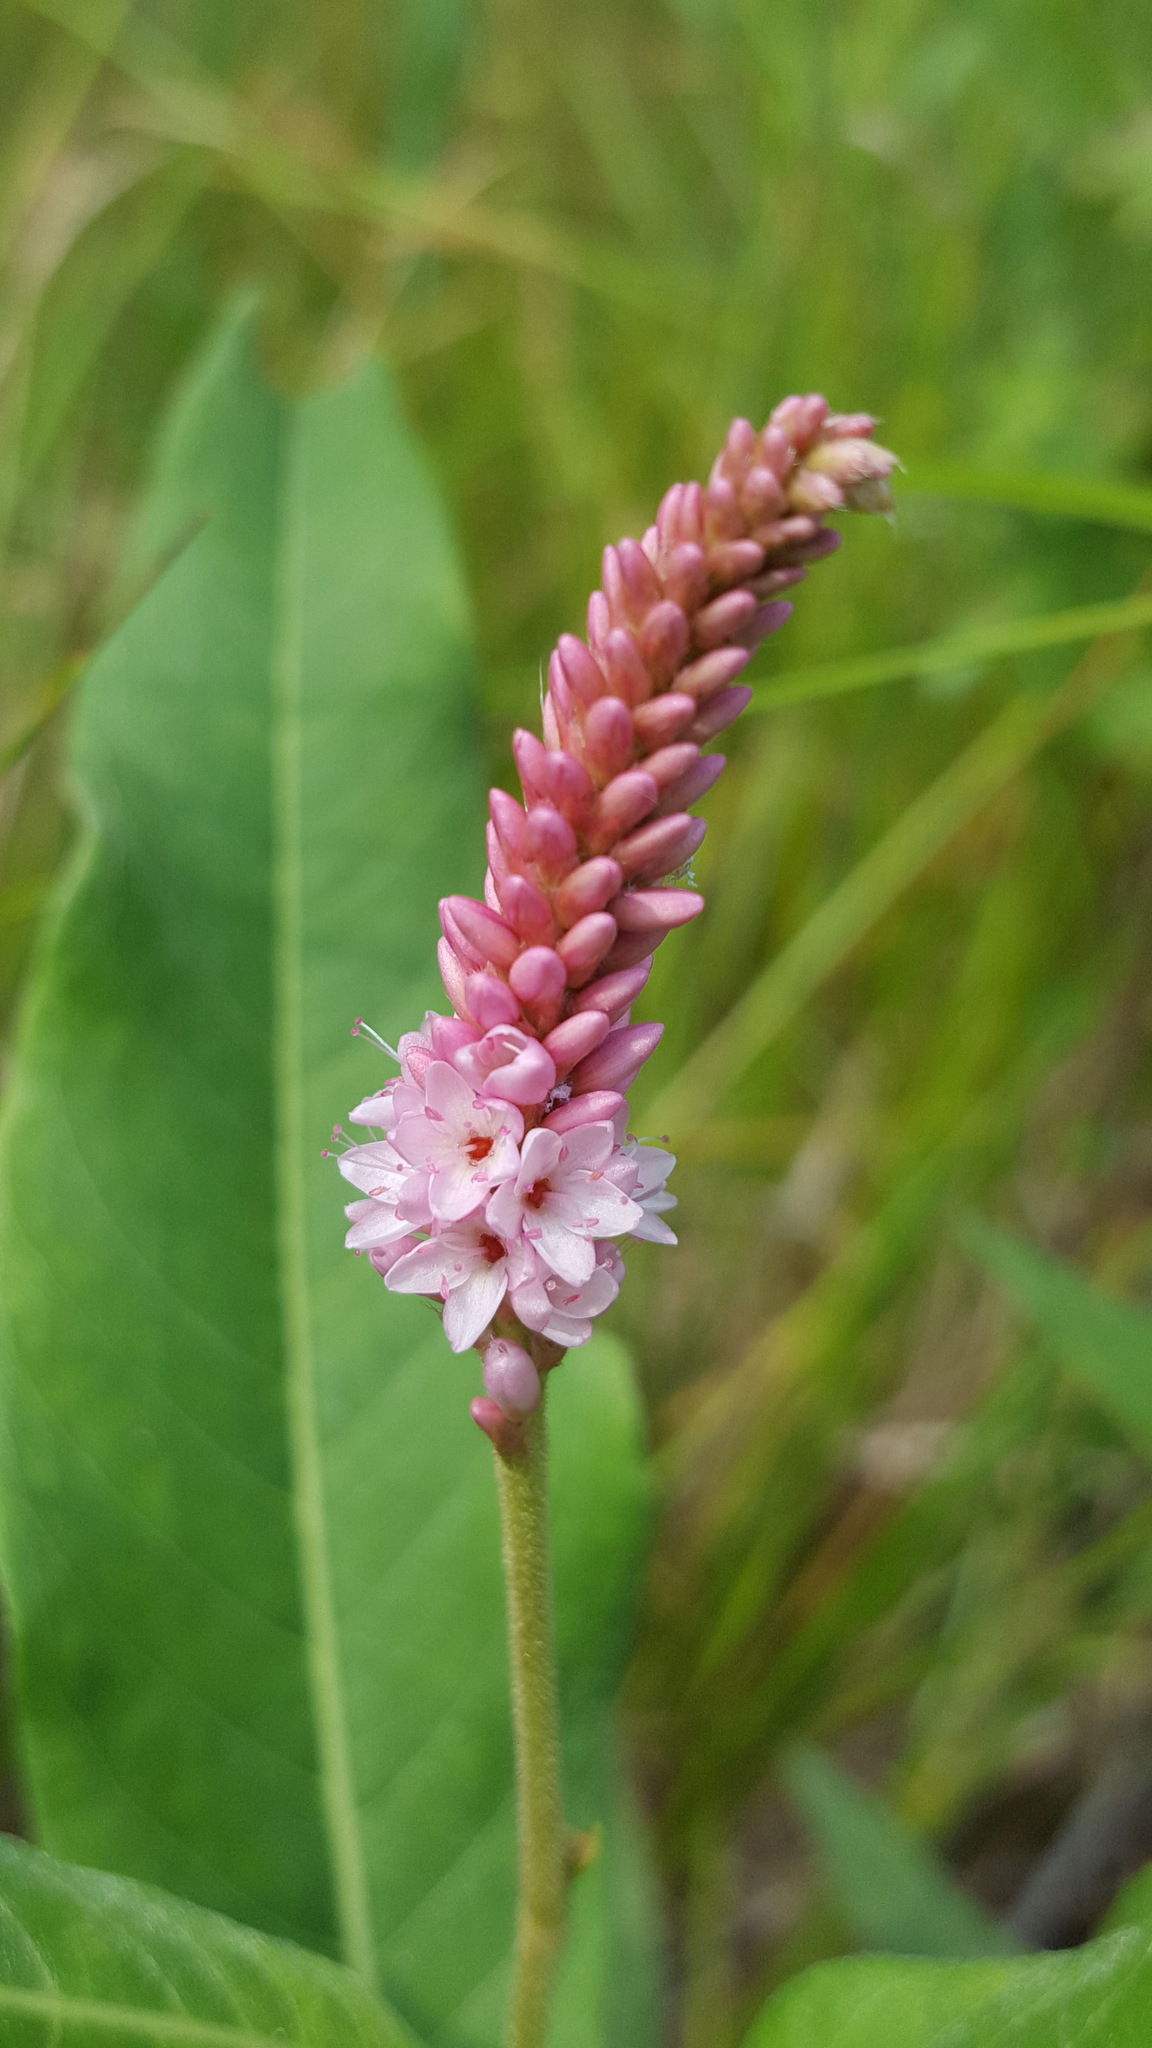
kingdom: Plantae
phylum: Tracheophyta
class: Magnoliopsida
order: Caryophyllales
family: Polygonaceae
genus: Persicaria
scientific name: Persicaria amphibia
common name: Amphibious bistort
